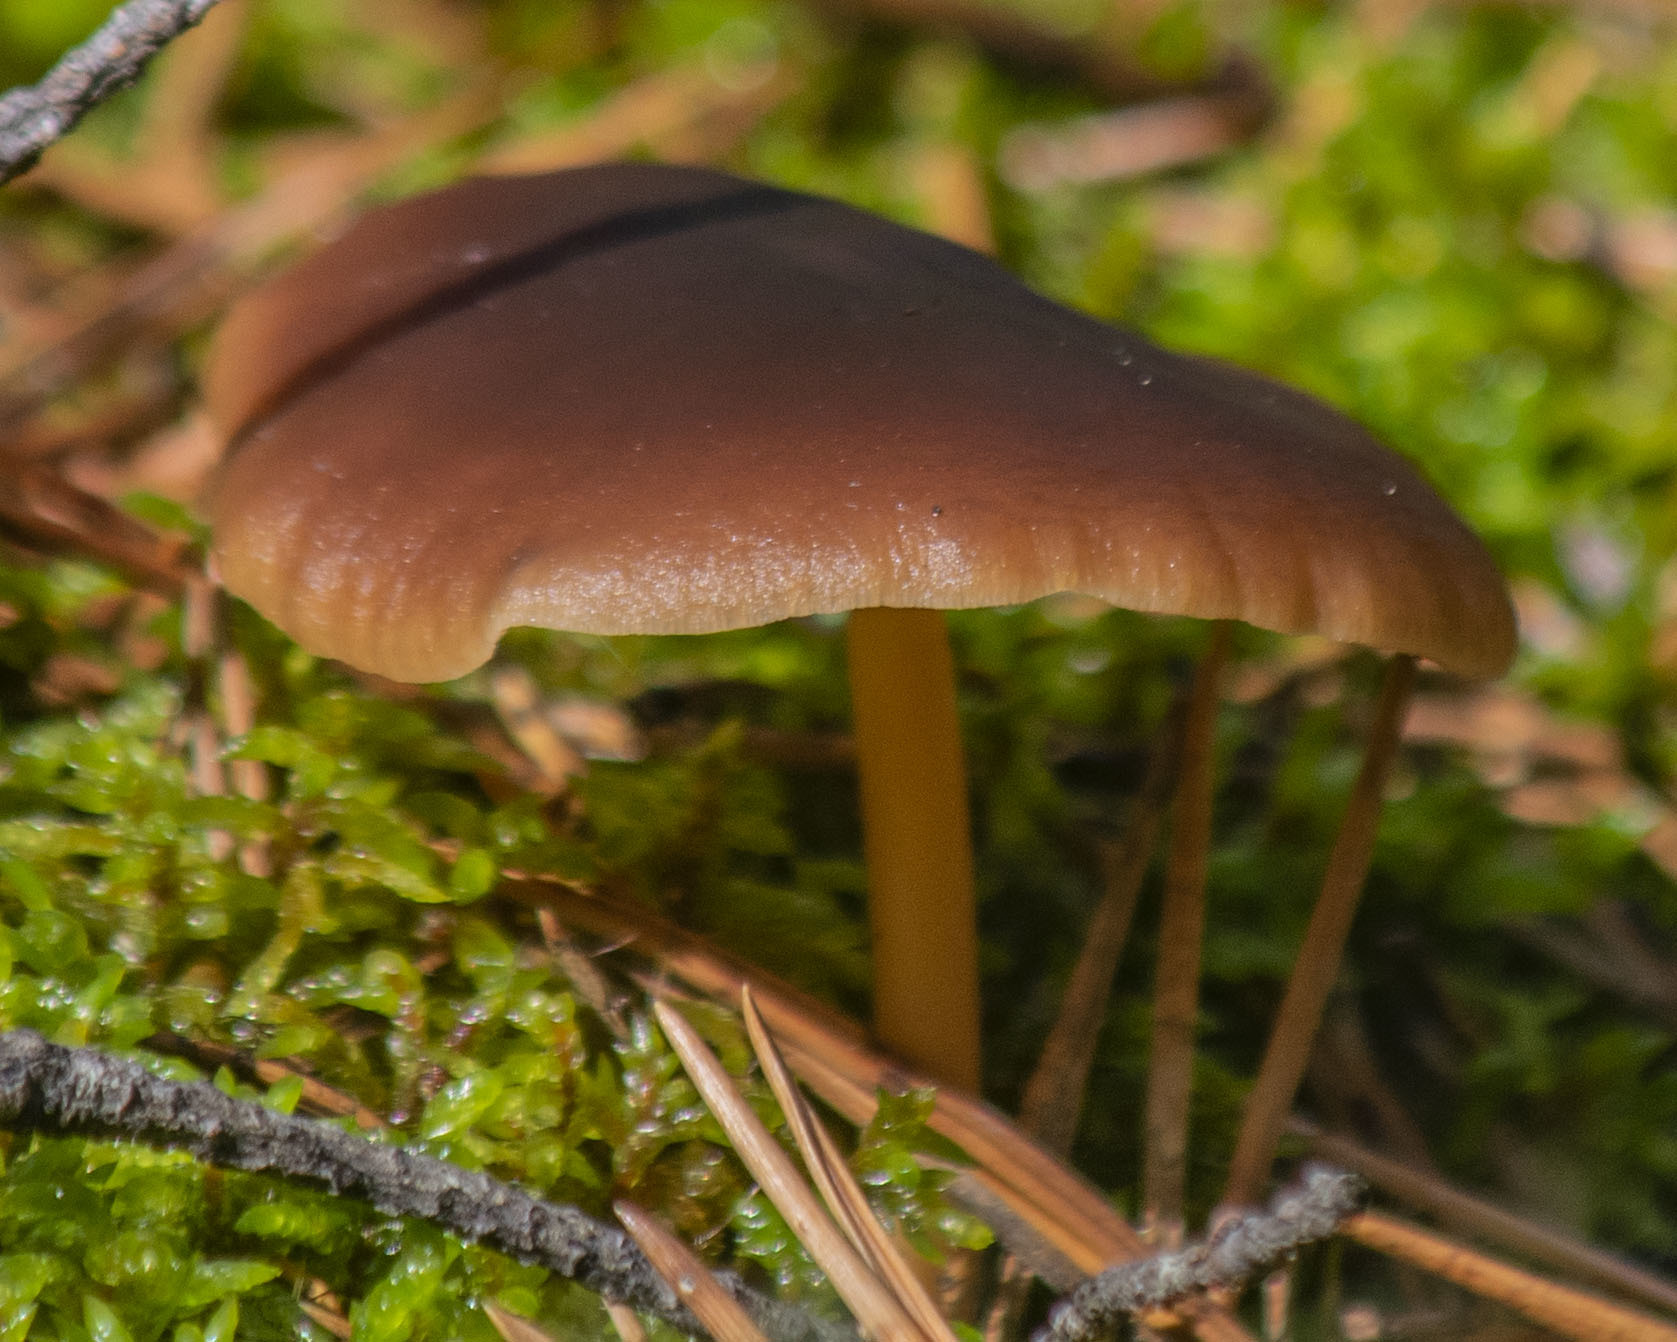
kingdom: Fungi
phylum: Basidiomycota
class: Agaricomycetes
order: Agaricales
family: Omphalotaceae
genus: Gymnopus
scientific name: Gymnopus ocior
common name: Spring toughshank
